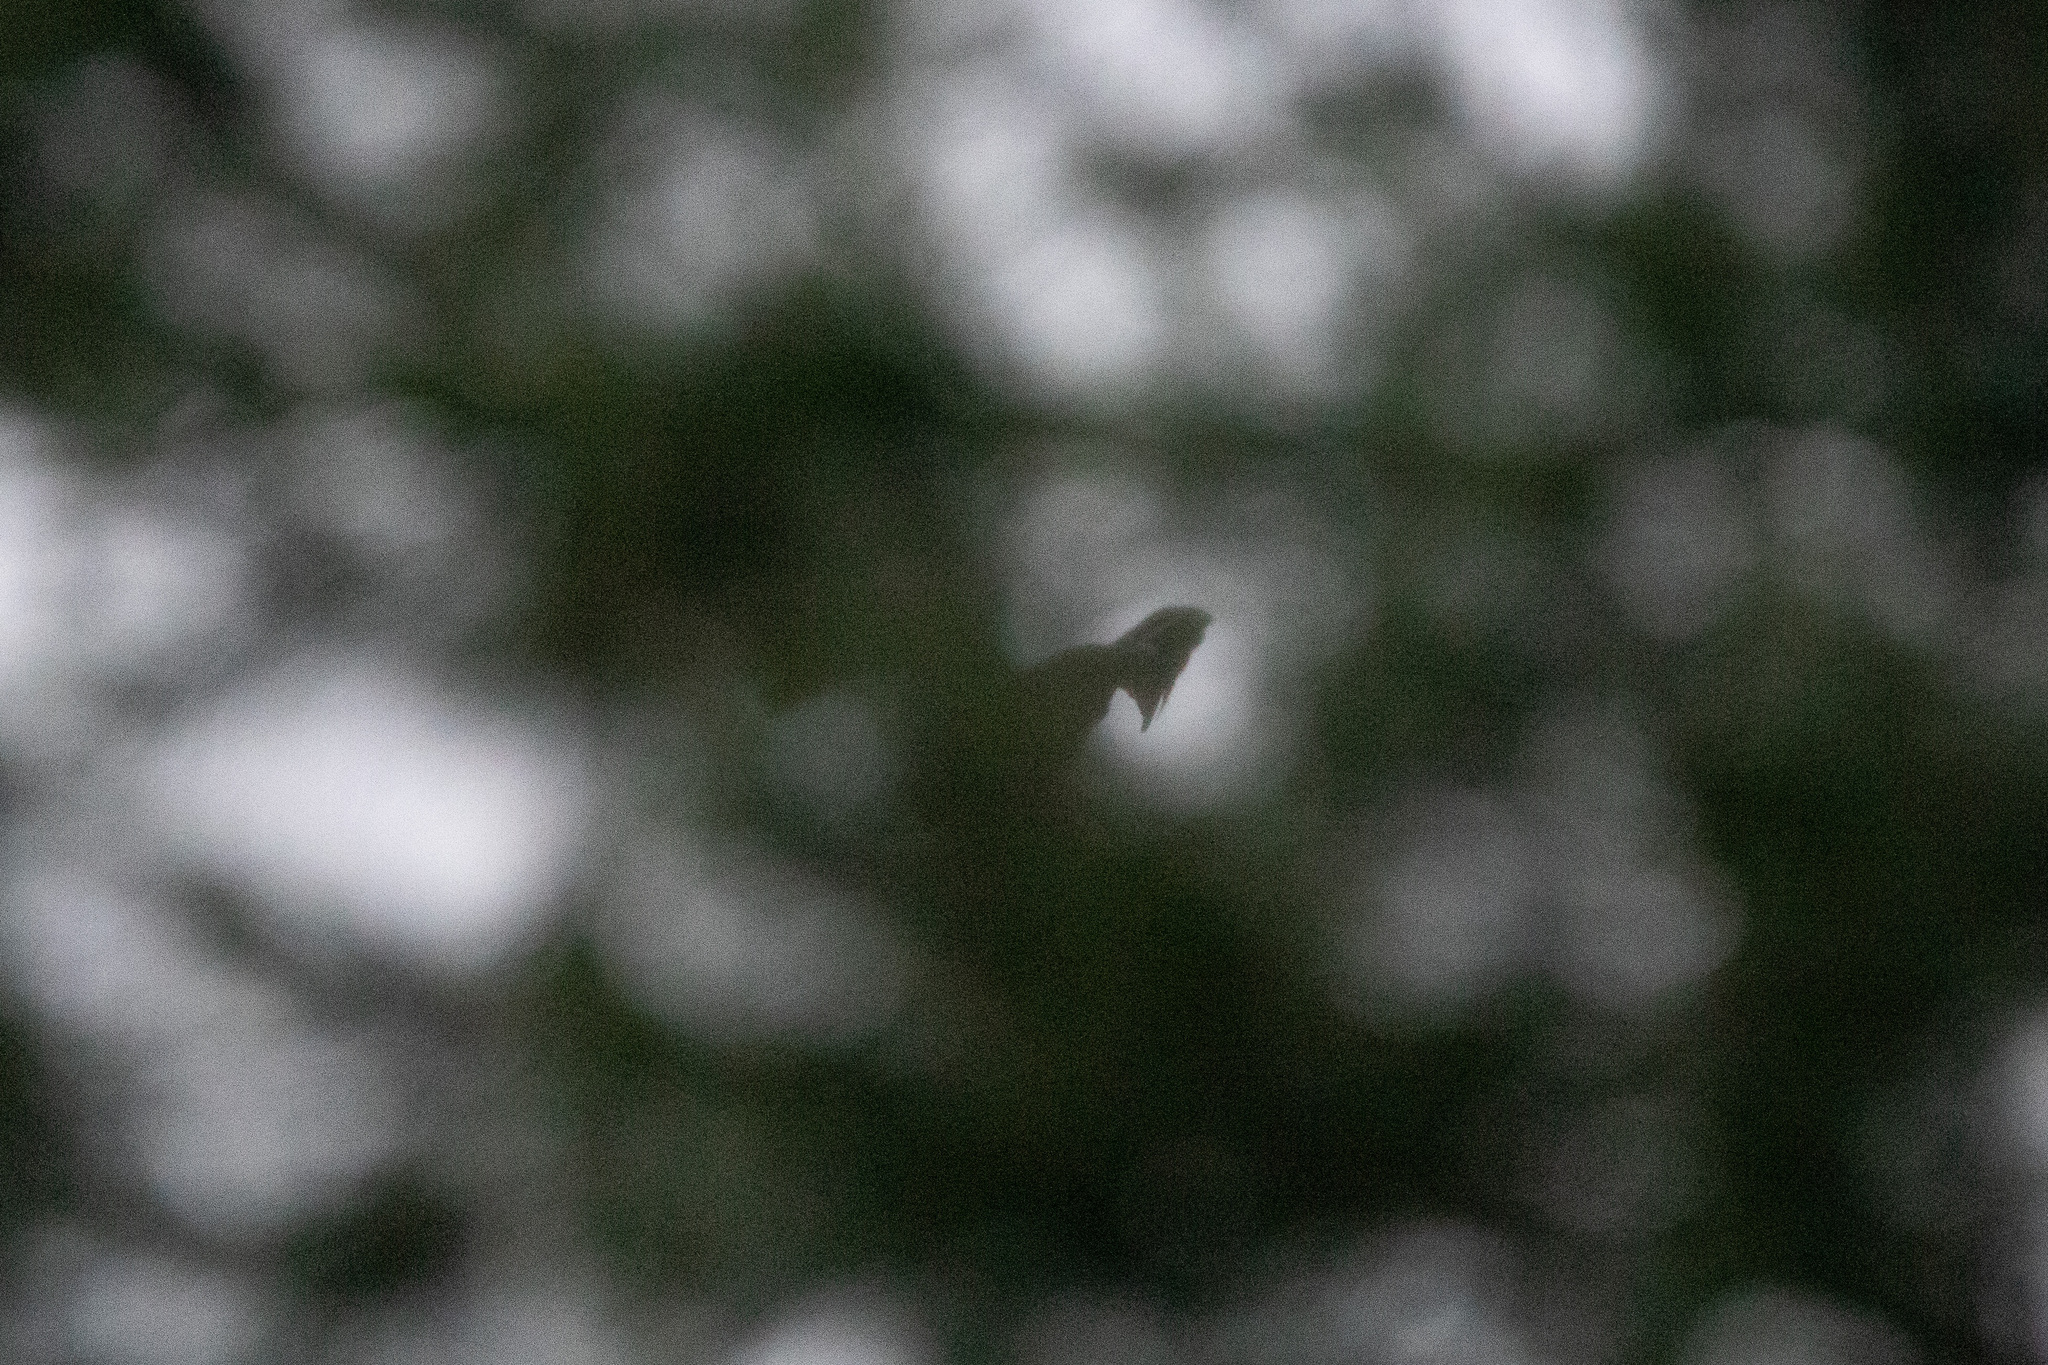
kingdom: Animalia
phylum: Chordata
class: Aves
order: Passeriformes
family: Corvidae
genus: Corvus
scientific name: Corvus corax
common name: Common raven
